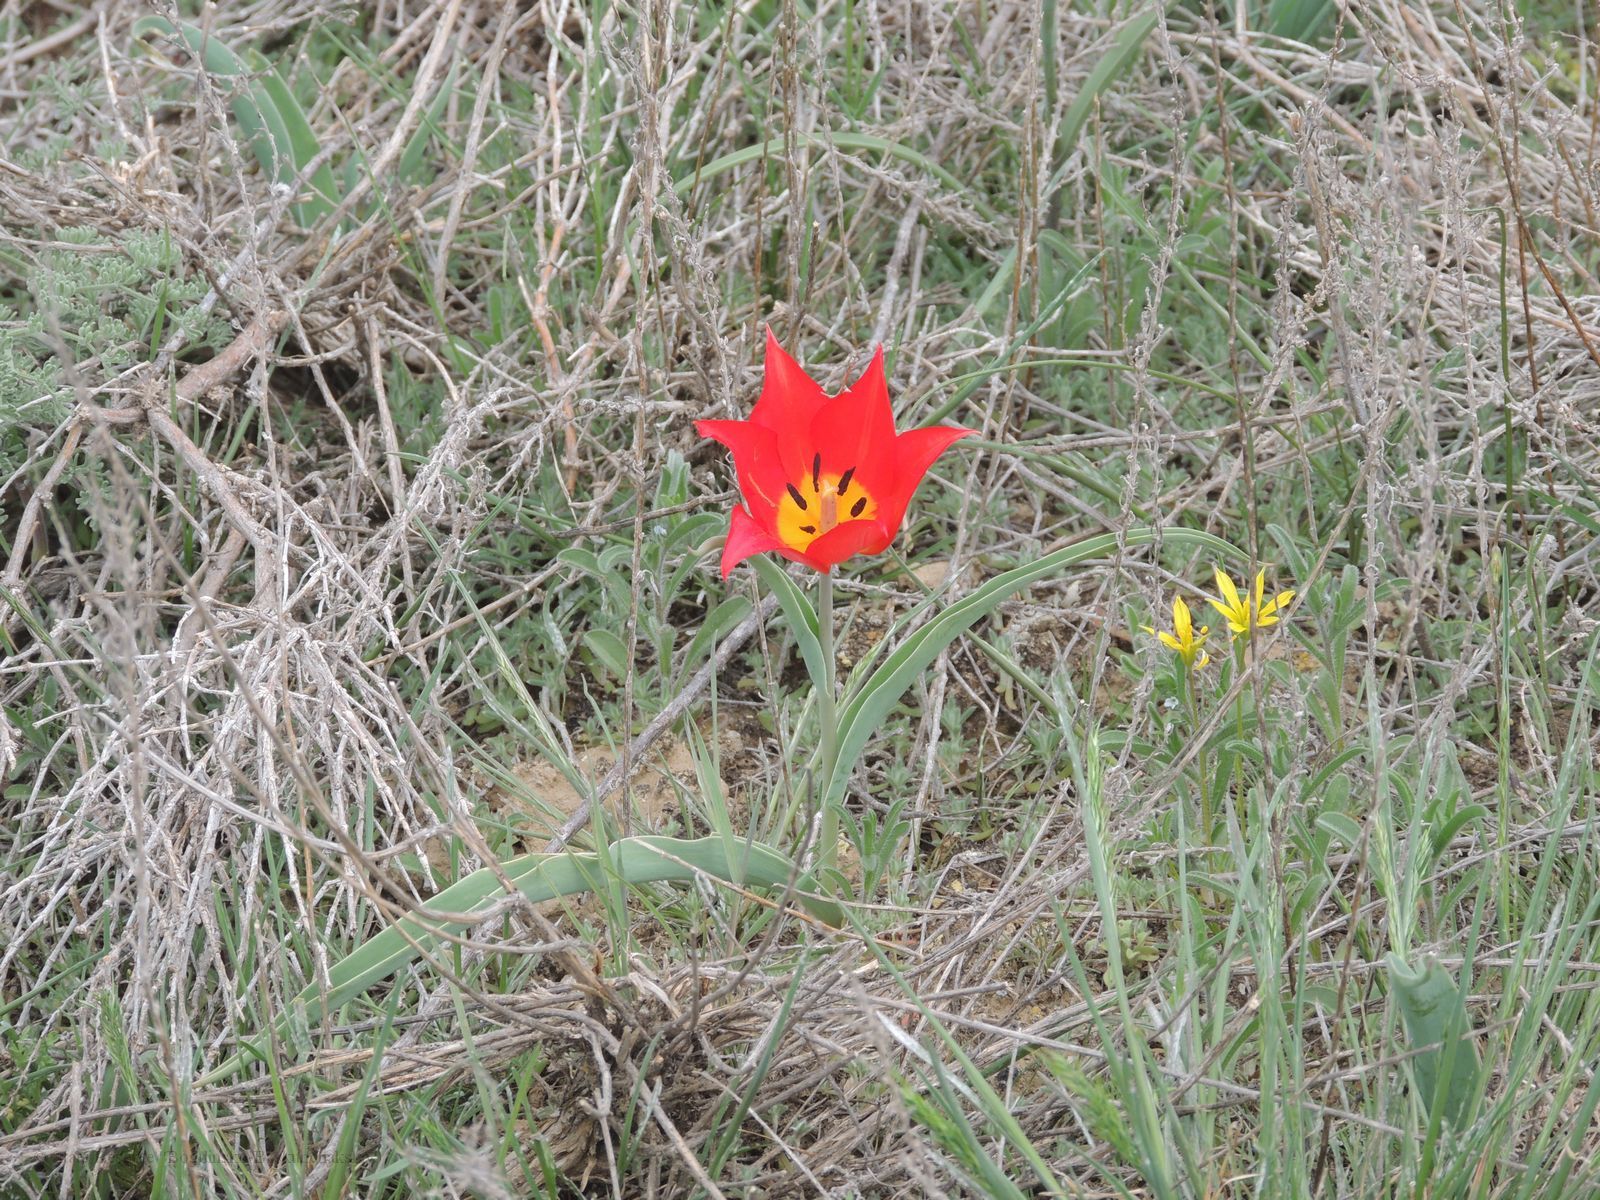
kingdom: Plantae
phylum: Tracheophyta
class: Liliopsida
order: Liliales
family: Liliaceae
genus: Tulipa
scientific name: Tulipa suaveolens
